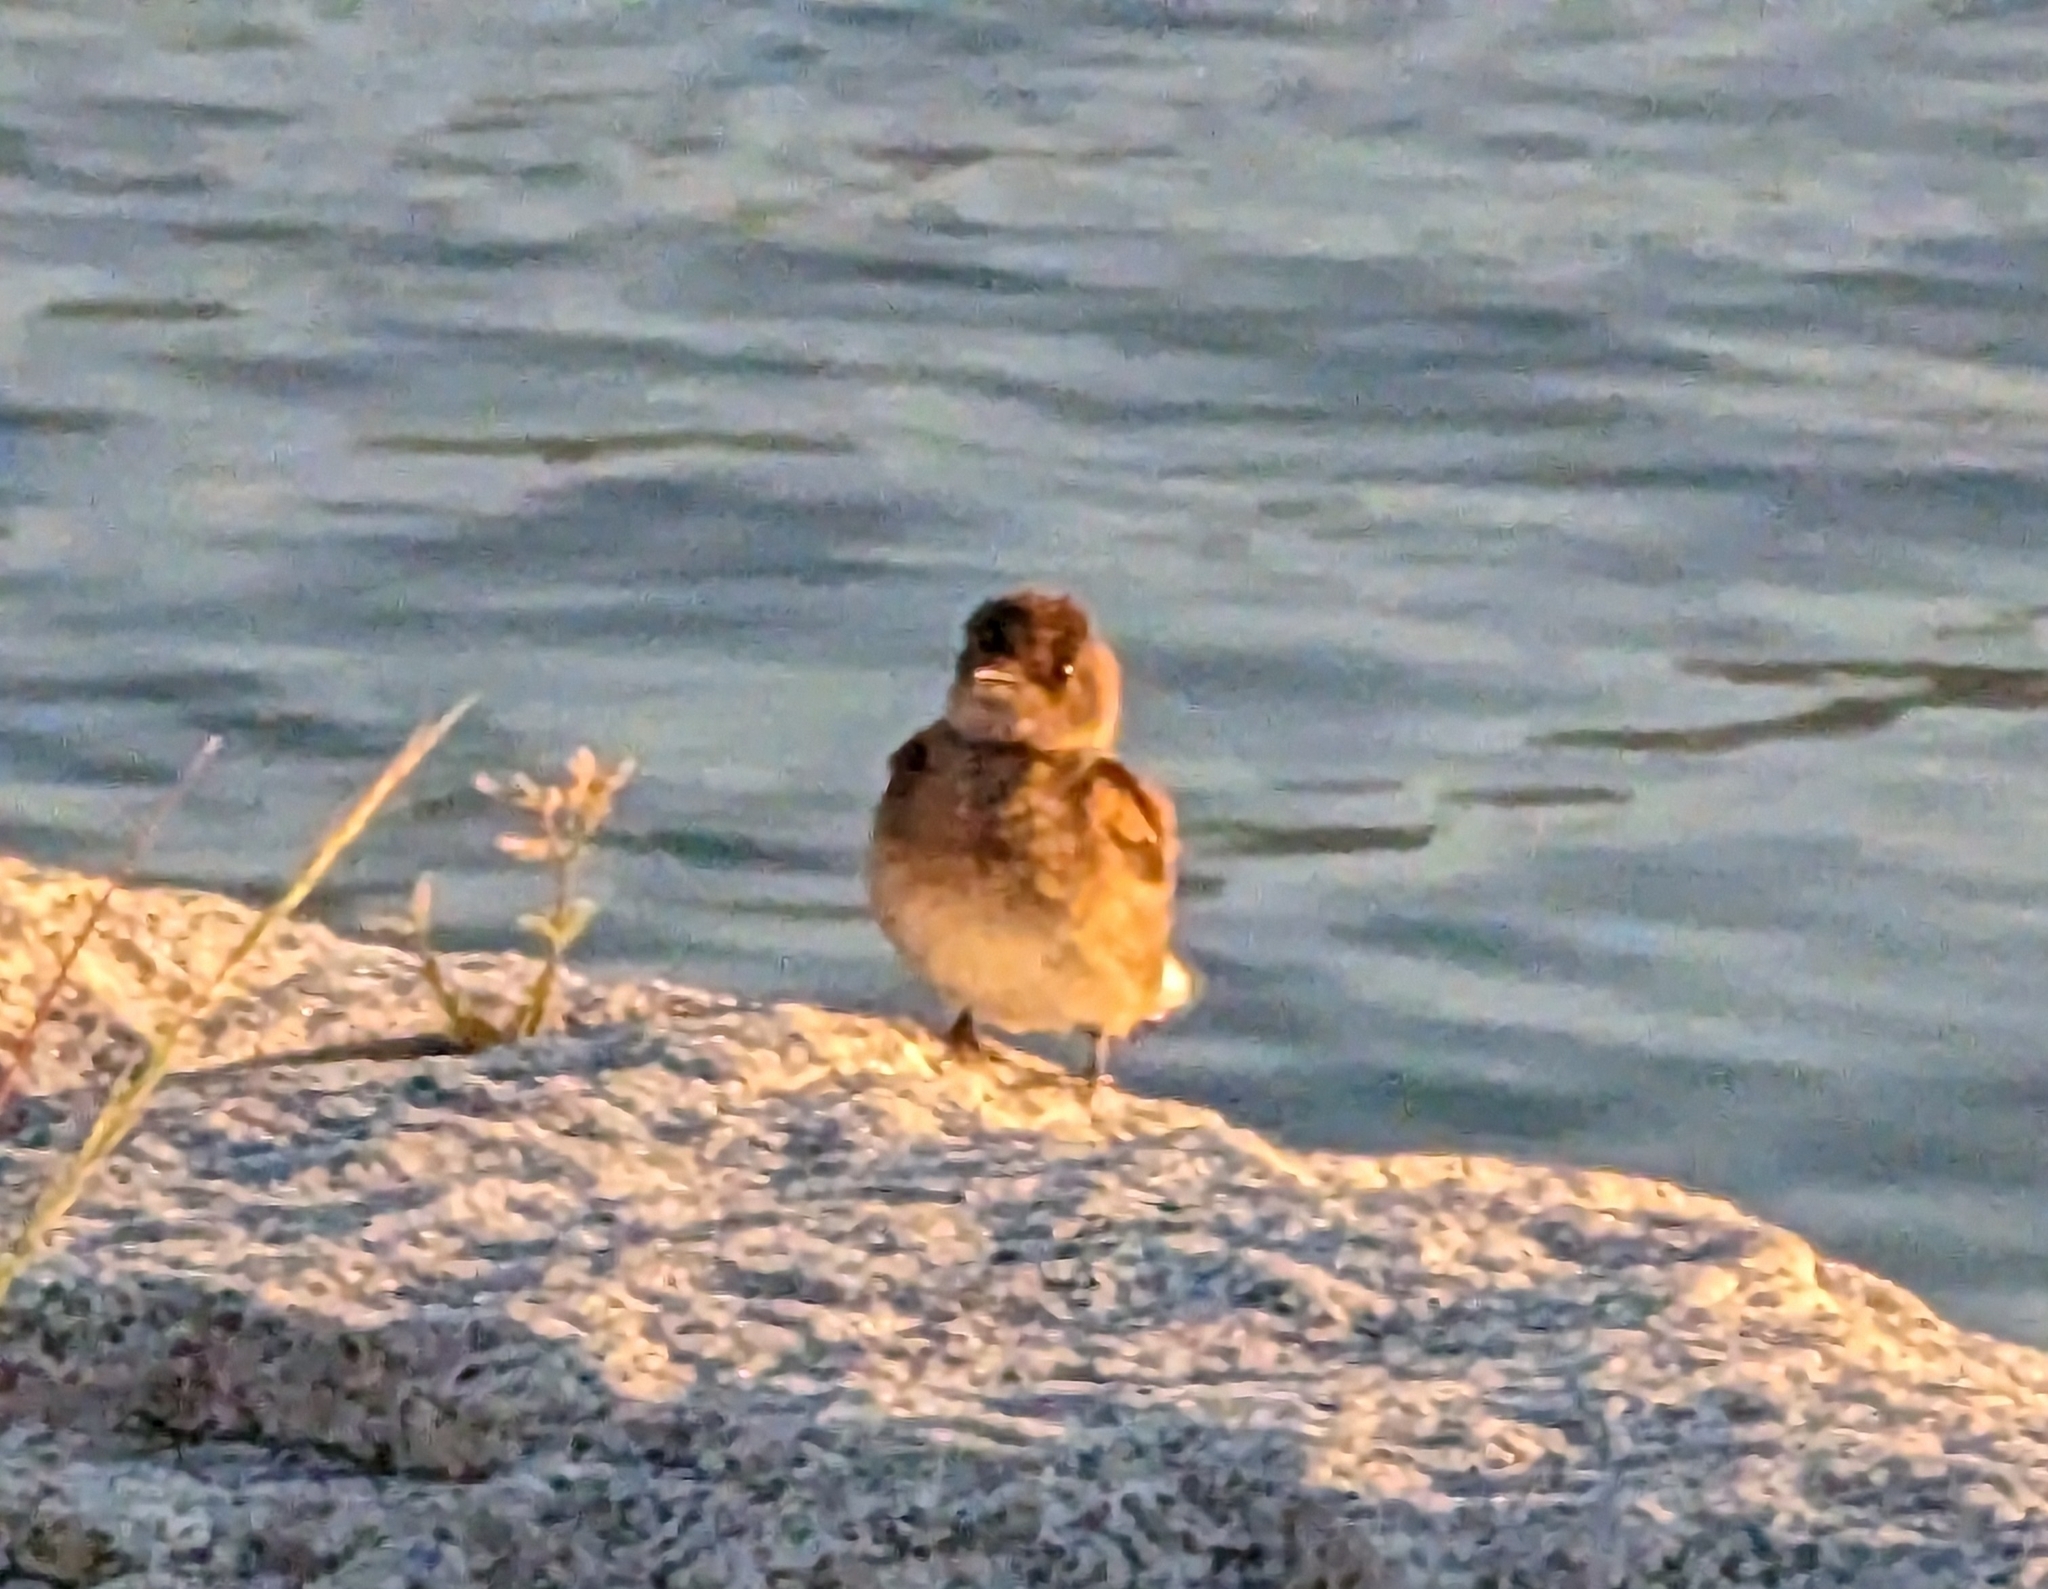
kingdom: Animalia
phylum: Chordata
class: Aves
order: Passeriformes
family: Hirundinidae
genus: Stelgidopteryx
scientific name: Stelgidopteryx serripennis
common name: Northern rough-winged swallow
